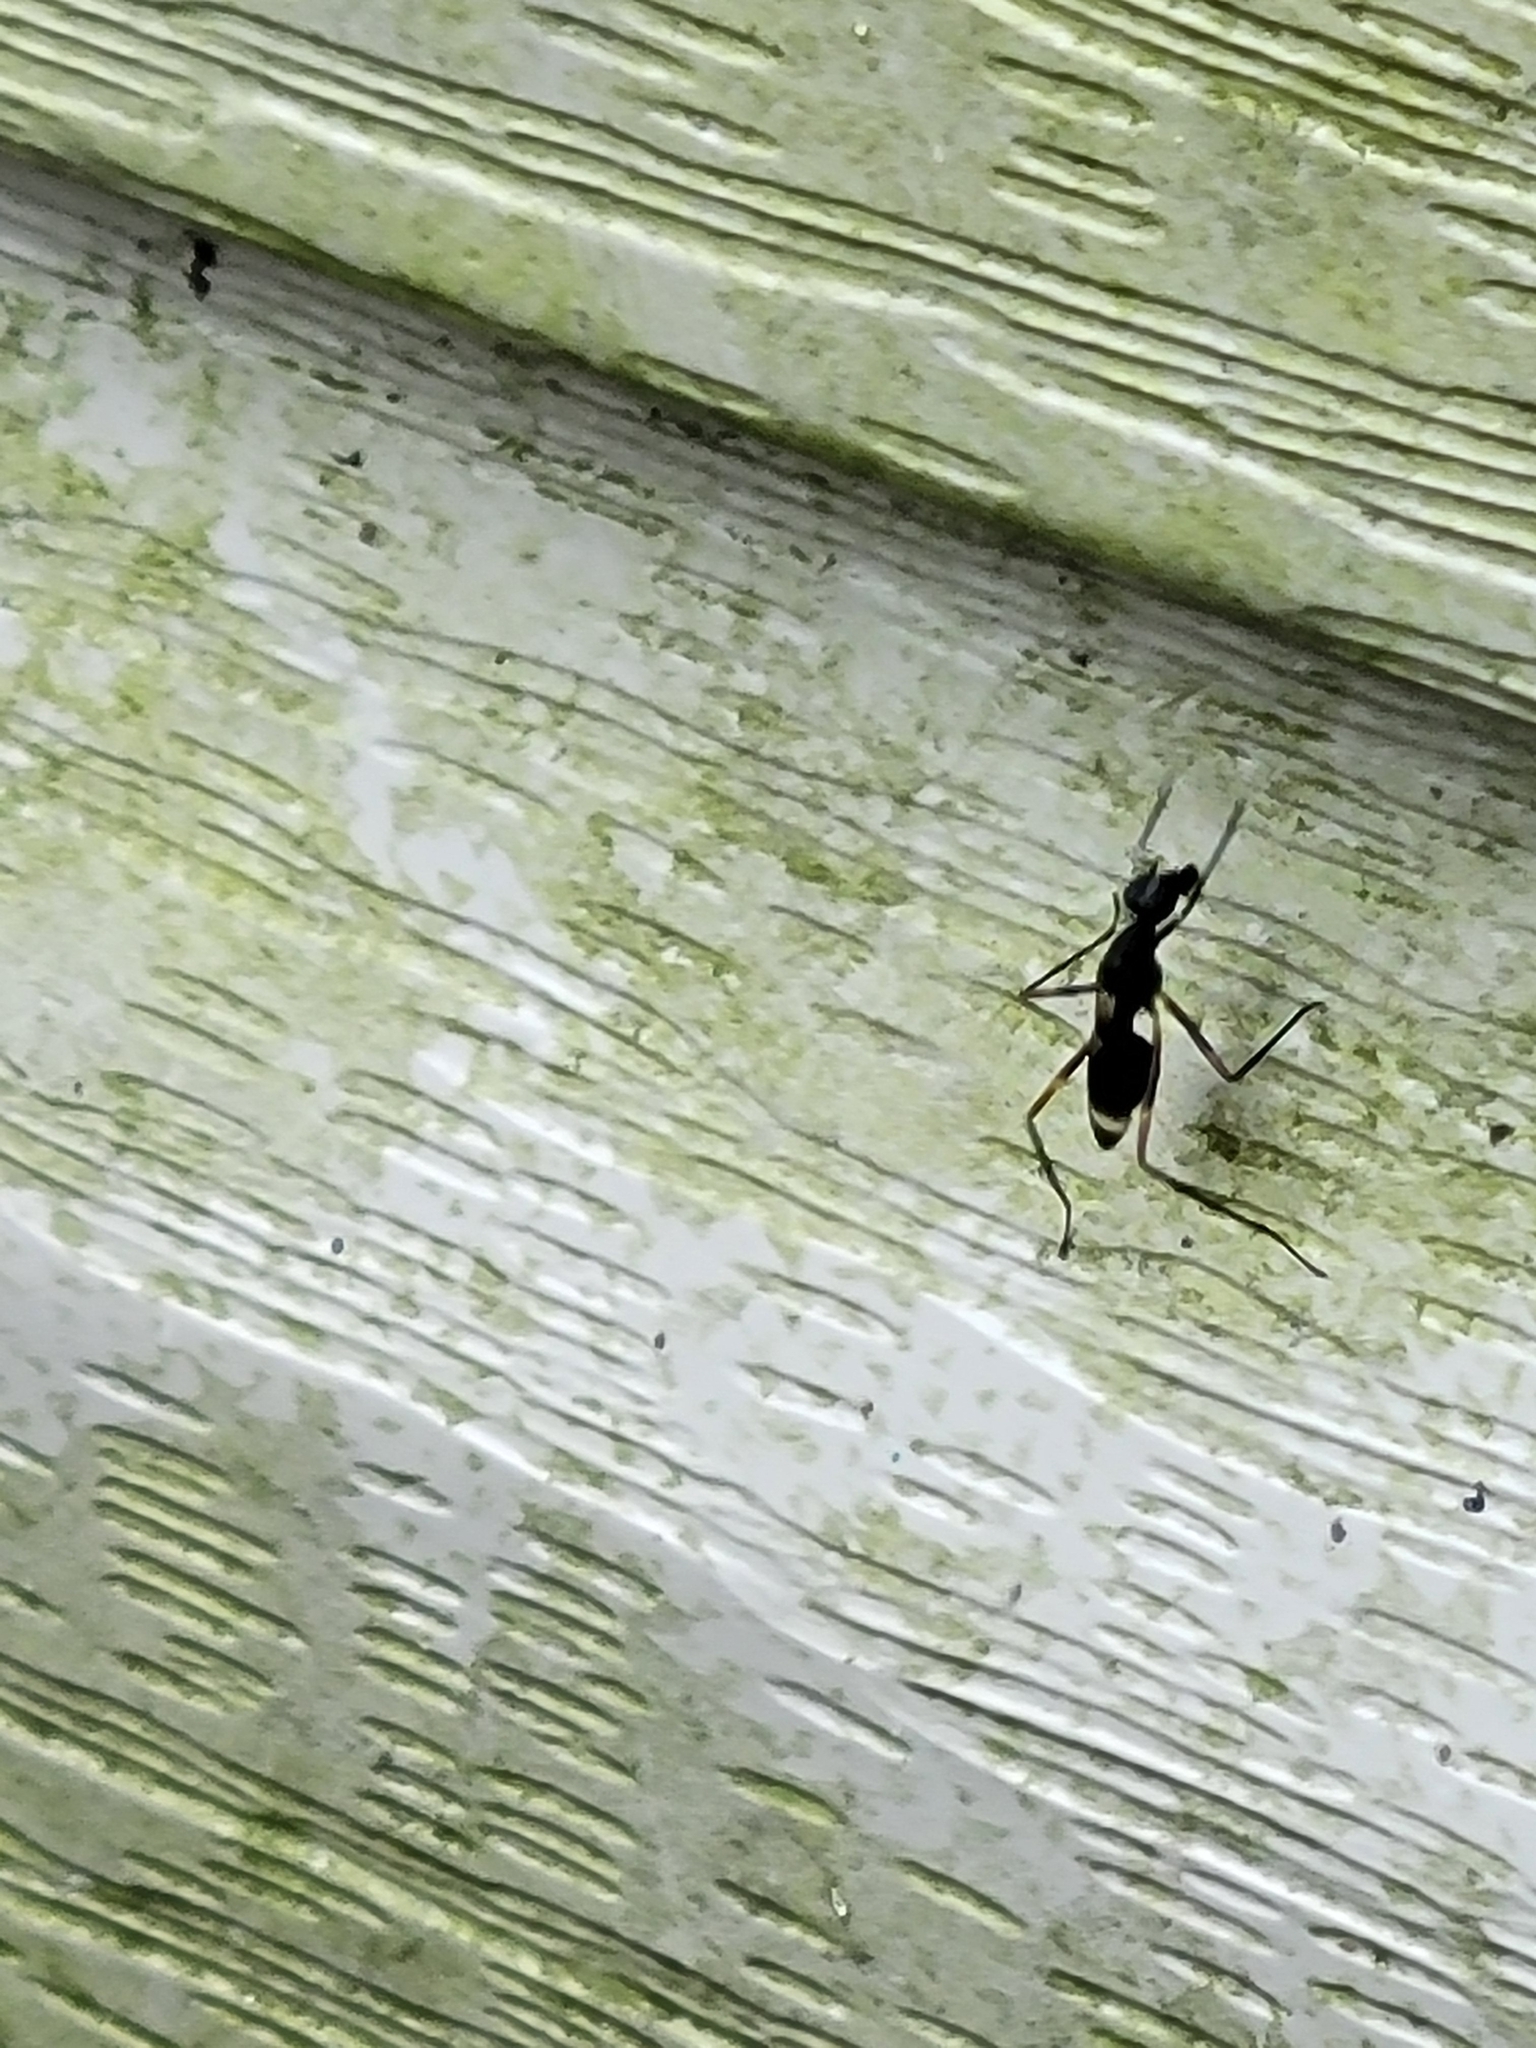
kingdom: Animalia
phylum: Arthropoda
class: Insecta
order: Diptera
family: Micropezidae
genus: Taeniaptera
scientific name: Taeniaptera trivittata
